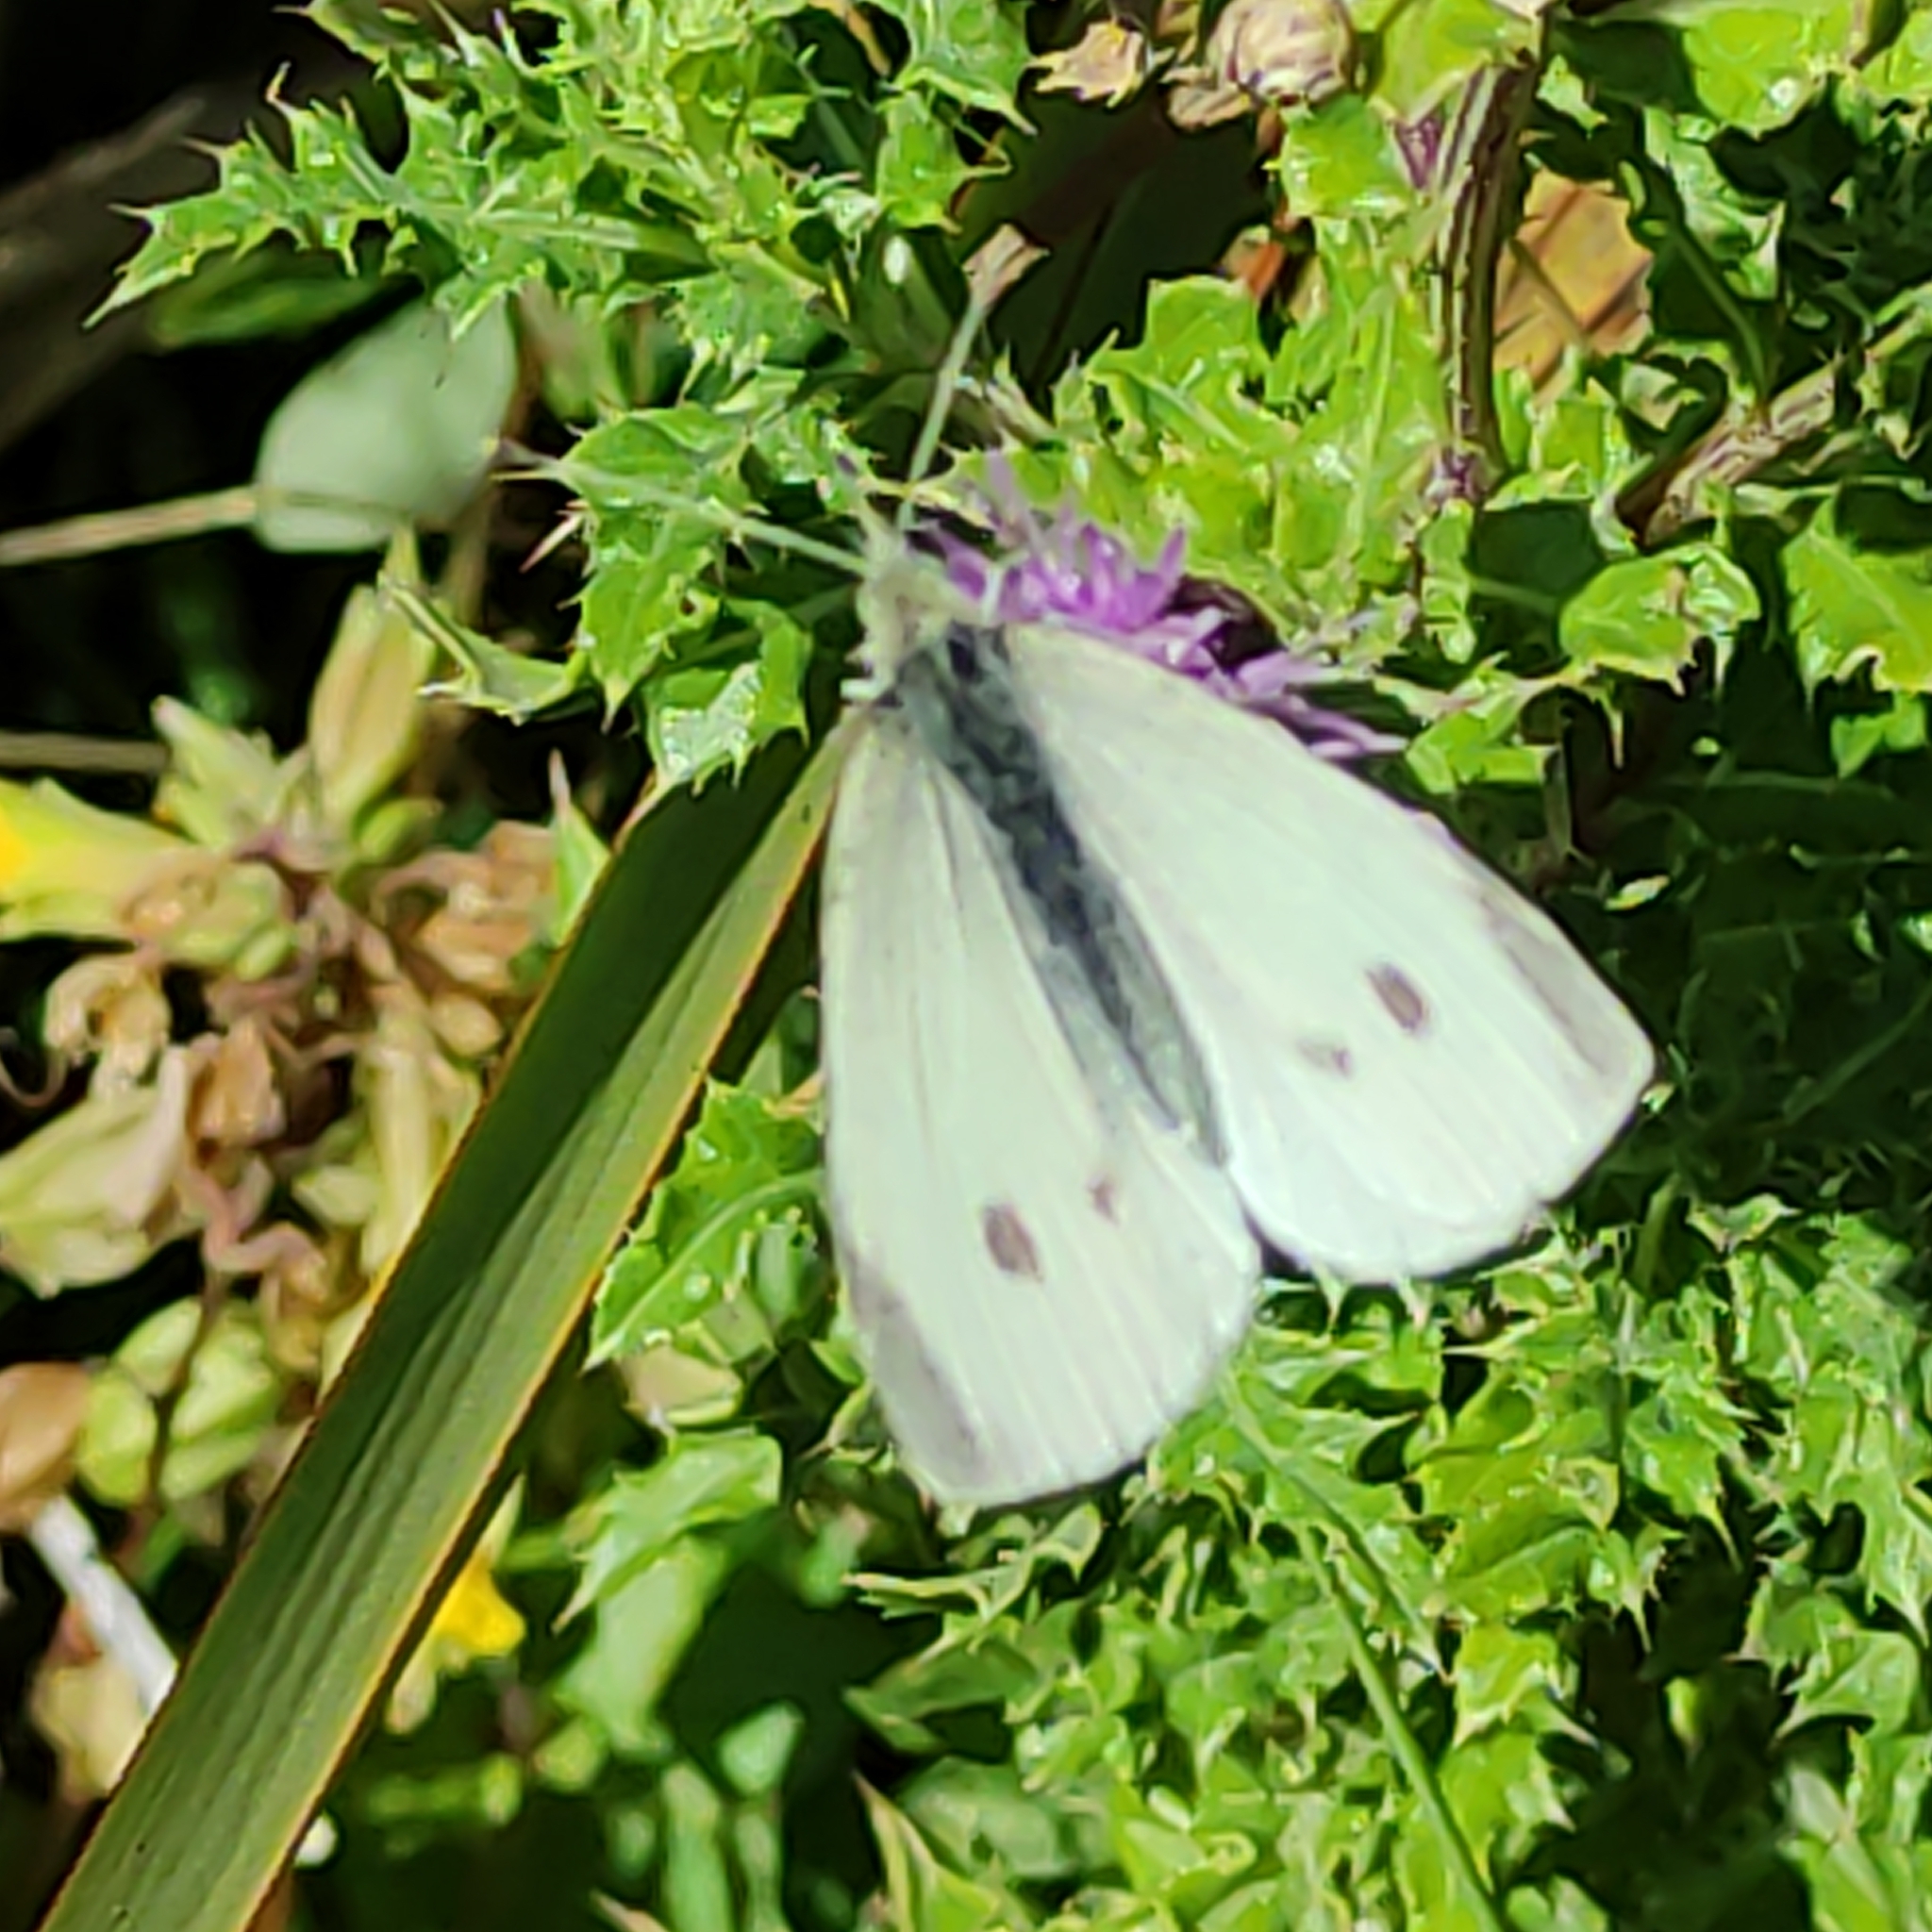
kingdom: Animalia
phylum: Arthropoda
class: Insecta
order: Lepidoptera
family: Pieridae
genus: Pieris
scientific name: Pieris rapae
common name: Small white
